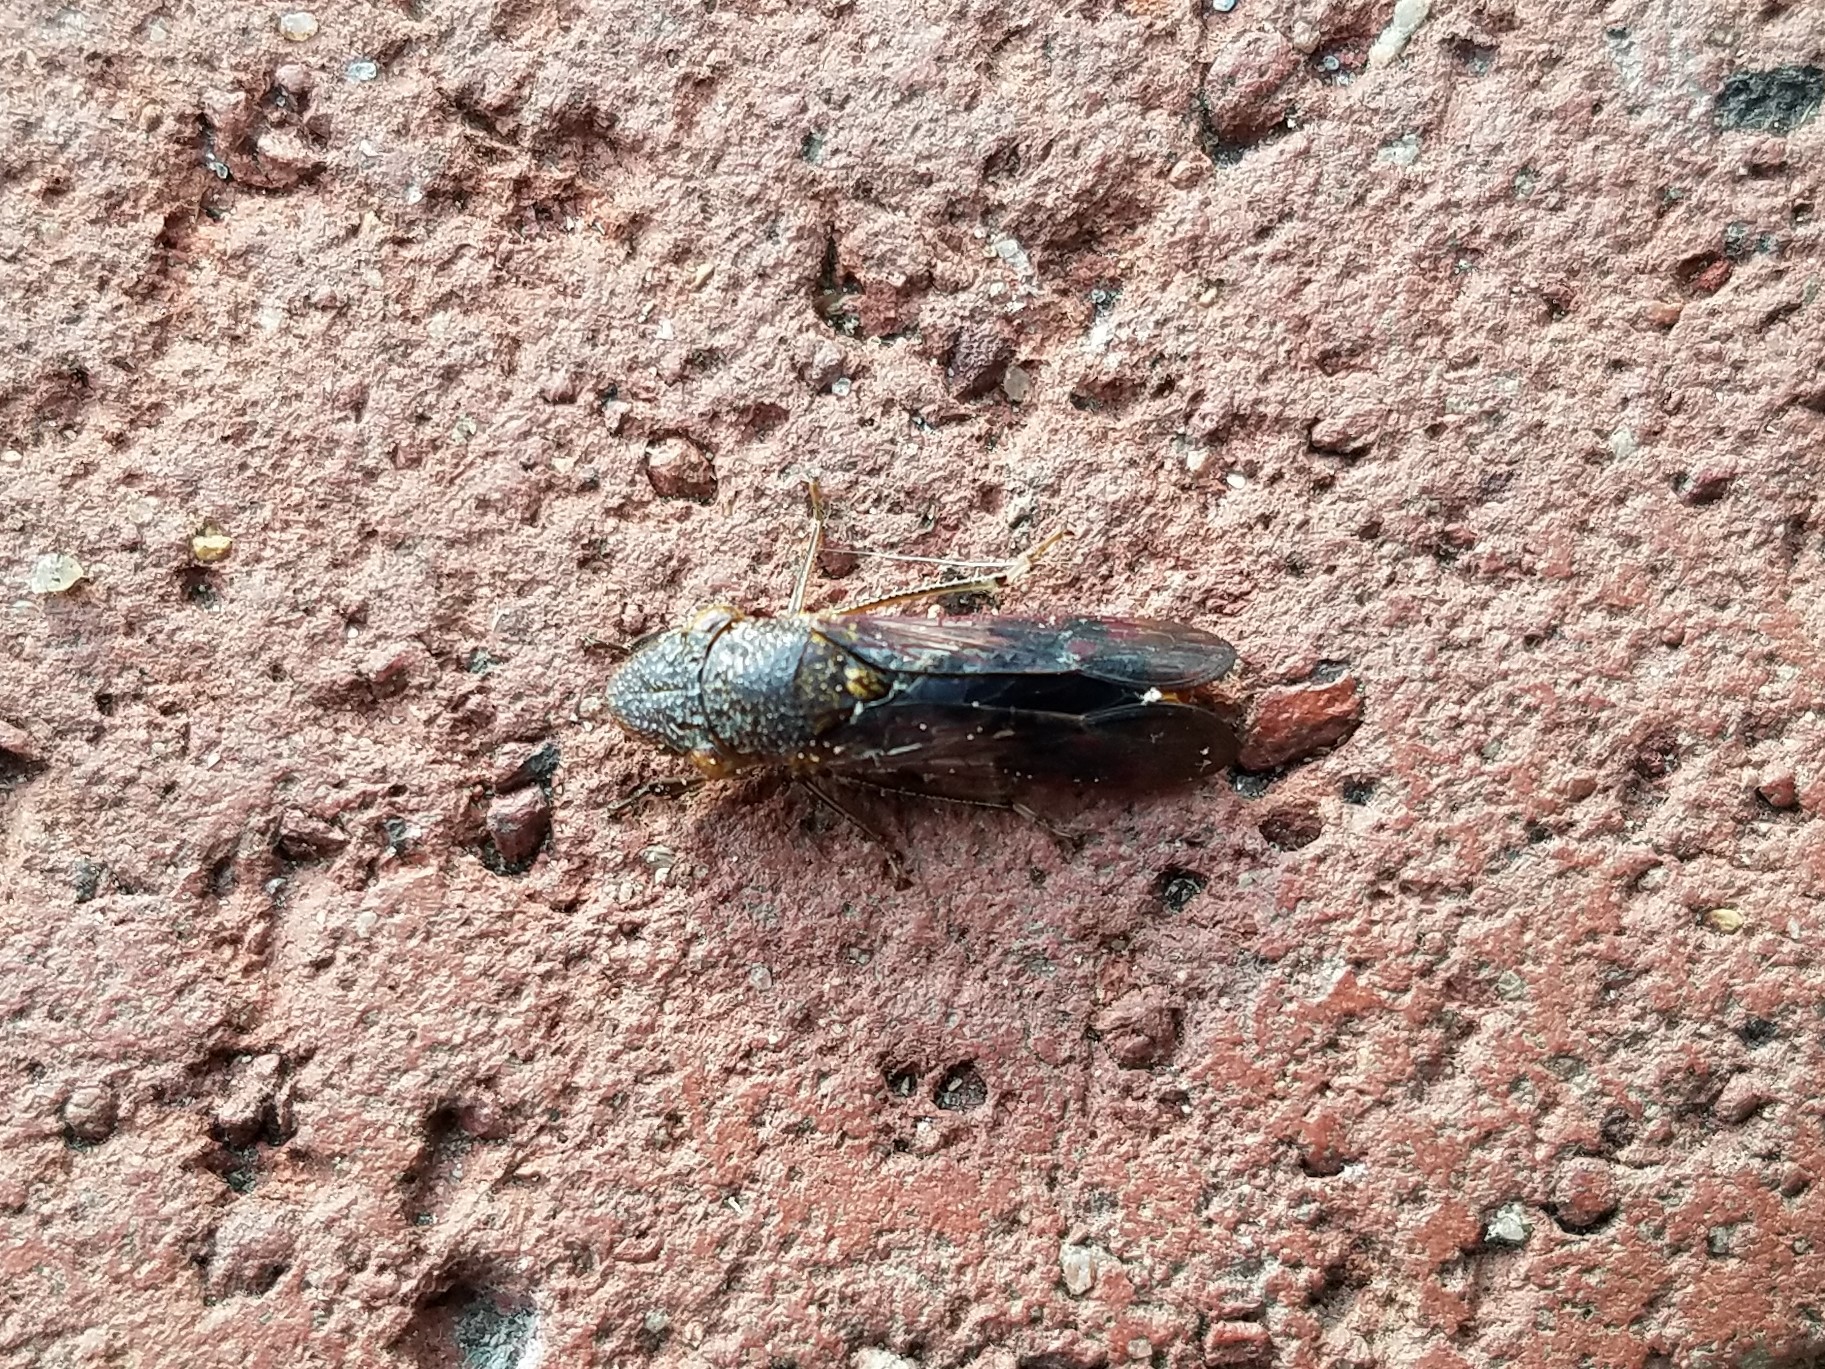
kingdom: Animalia
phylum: Arthropoda
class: Insecta
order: Hemiptera
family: Cicadellidae
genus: Homalodisca
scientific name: Homalodisca vitripennis
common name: Glassy-winged sharpshooter
